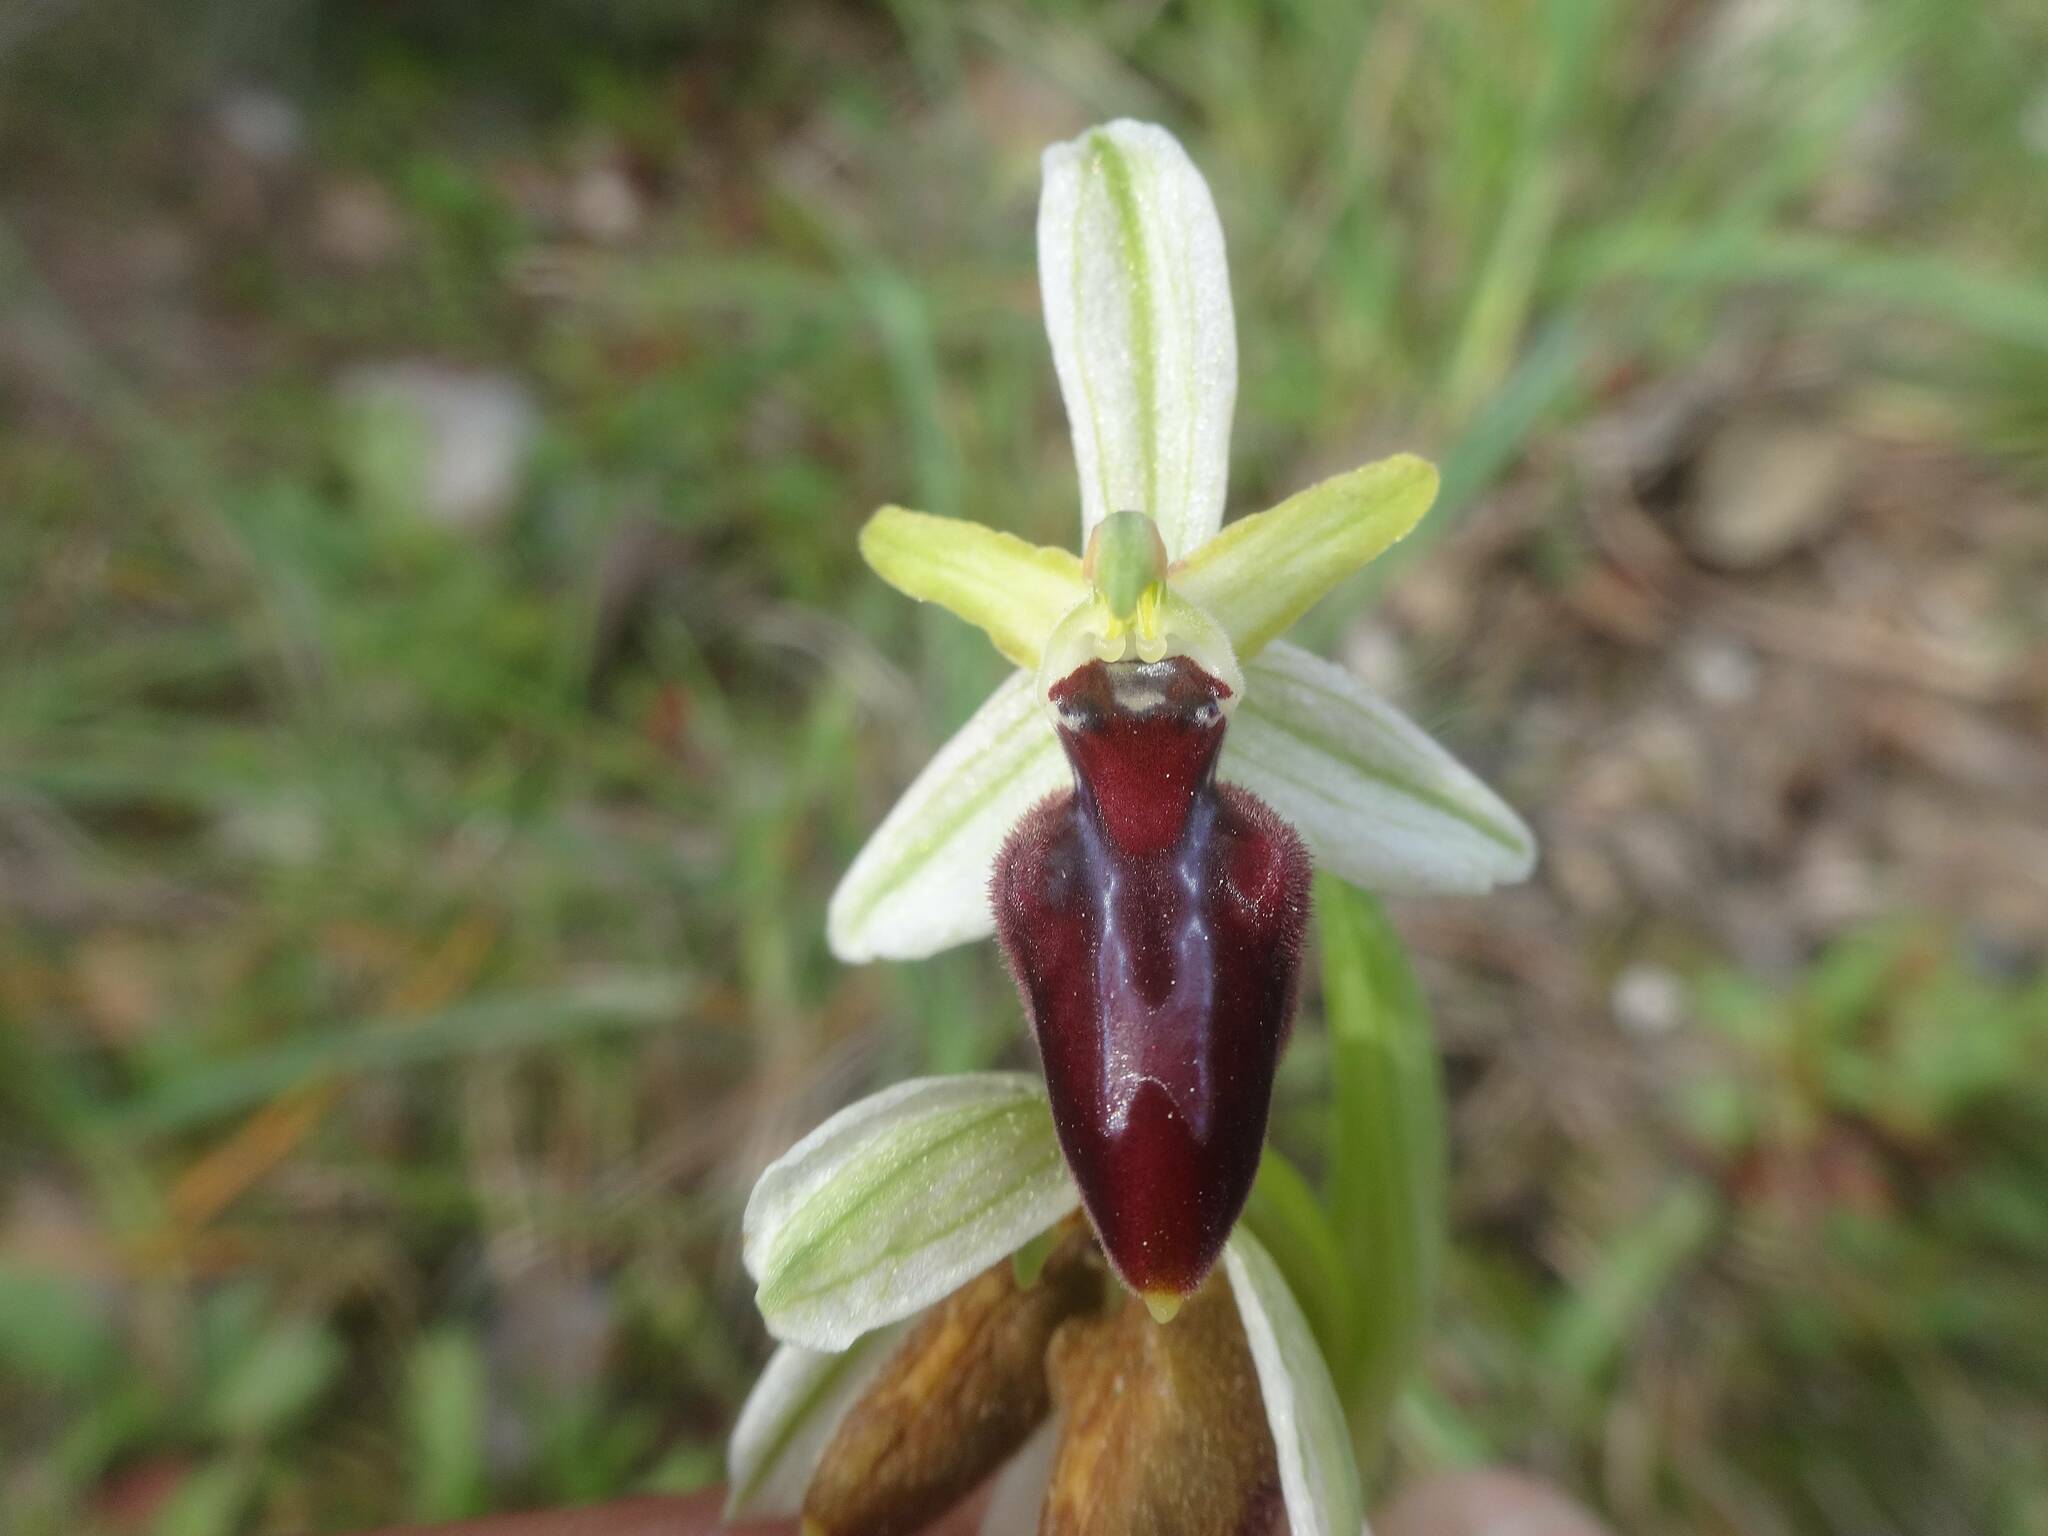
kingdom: Plantae
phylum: Tracheophyta
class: Liliopsida
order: Asparagales
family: Orchidaceae
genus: Ophrys
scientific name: Ophrys sphegodes
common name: Early spider-orchid
